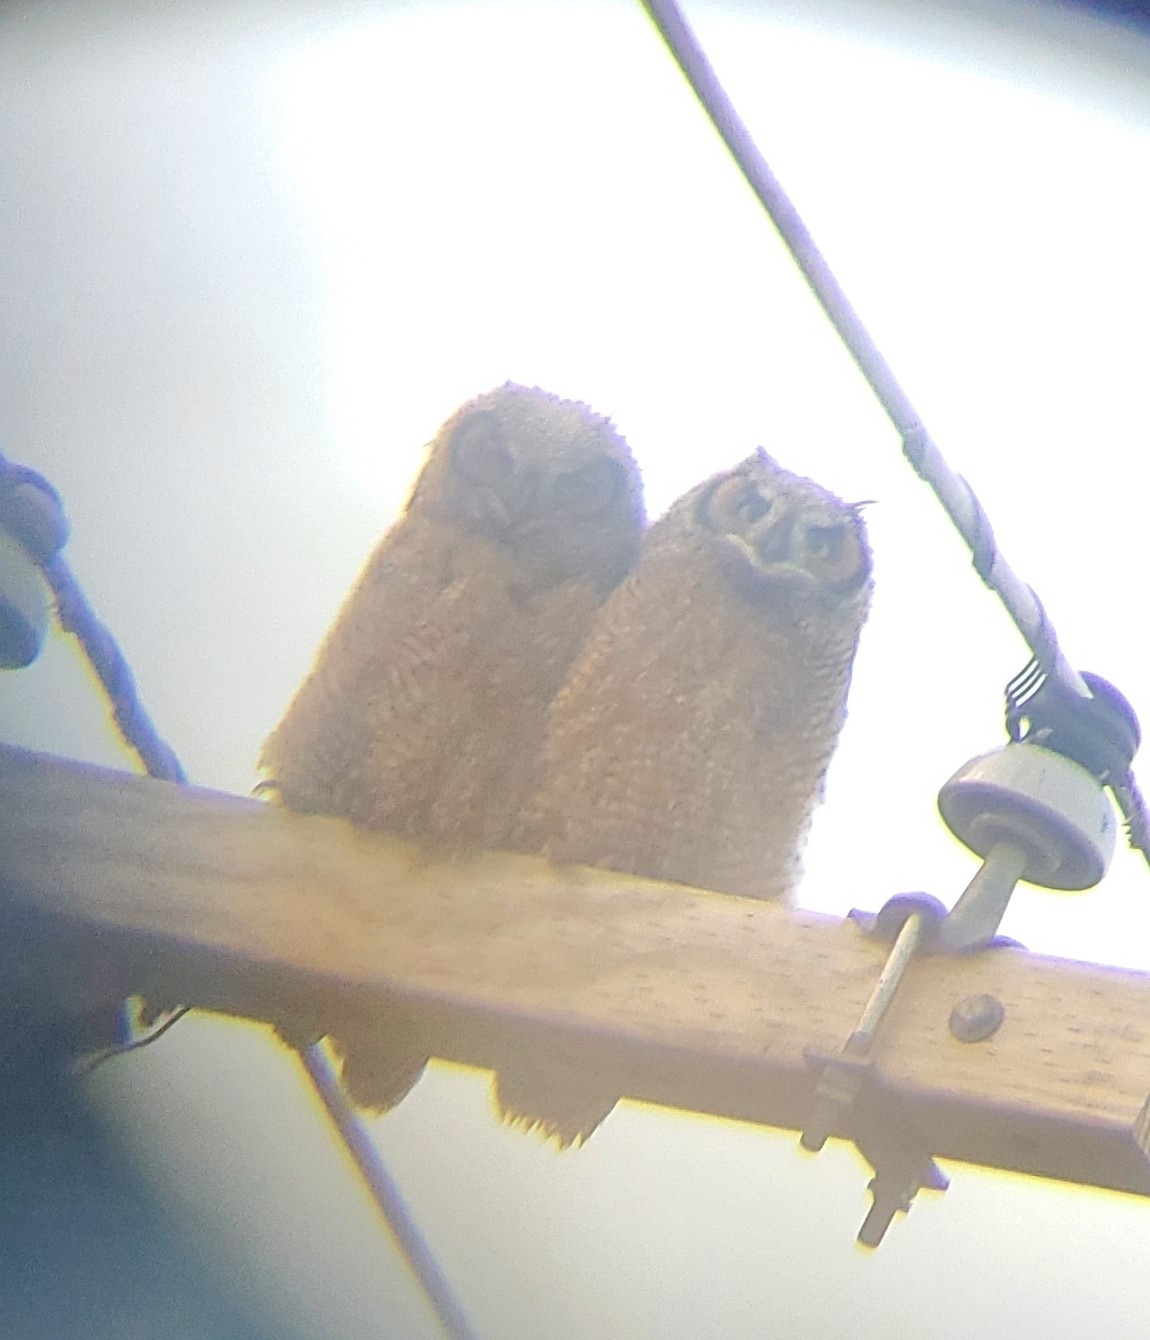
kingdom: Animalia
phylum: Chordata
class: Aves
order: Strigiformes
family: Strigidae
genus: Bubo
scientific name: Bubo virginianus
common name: Great horned owl
